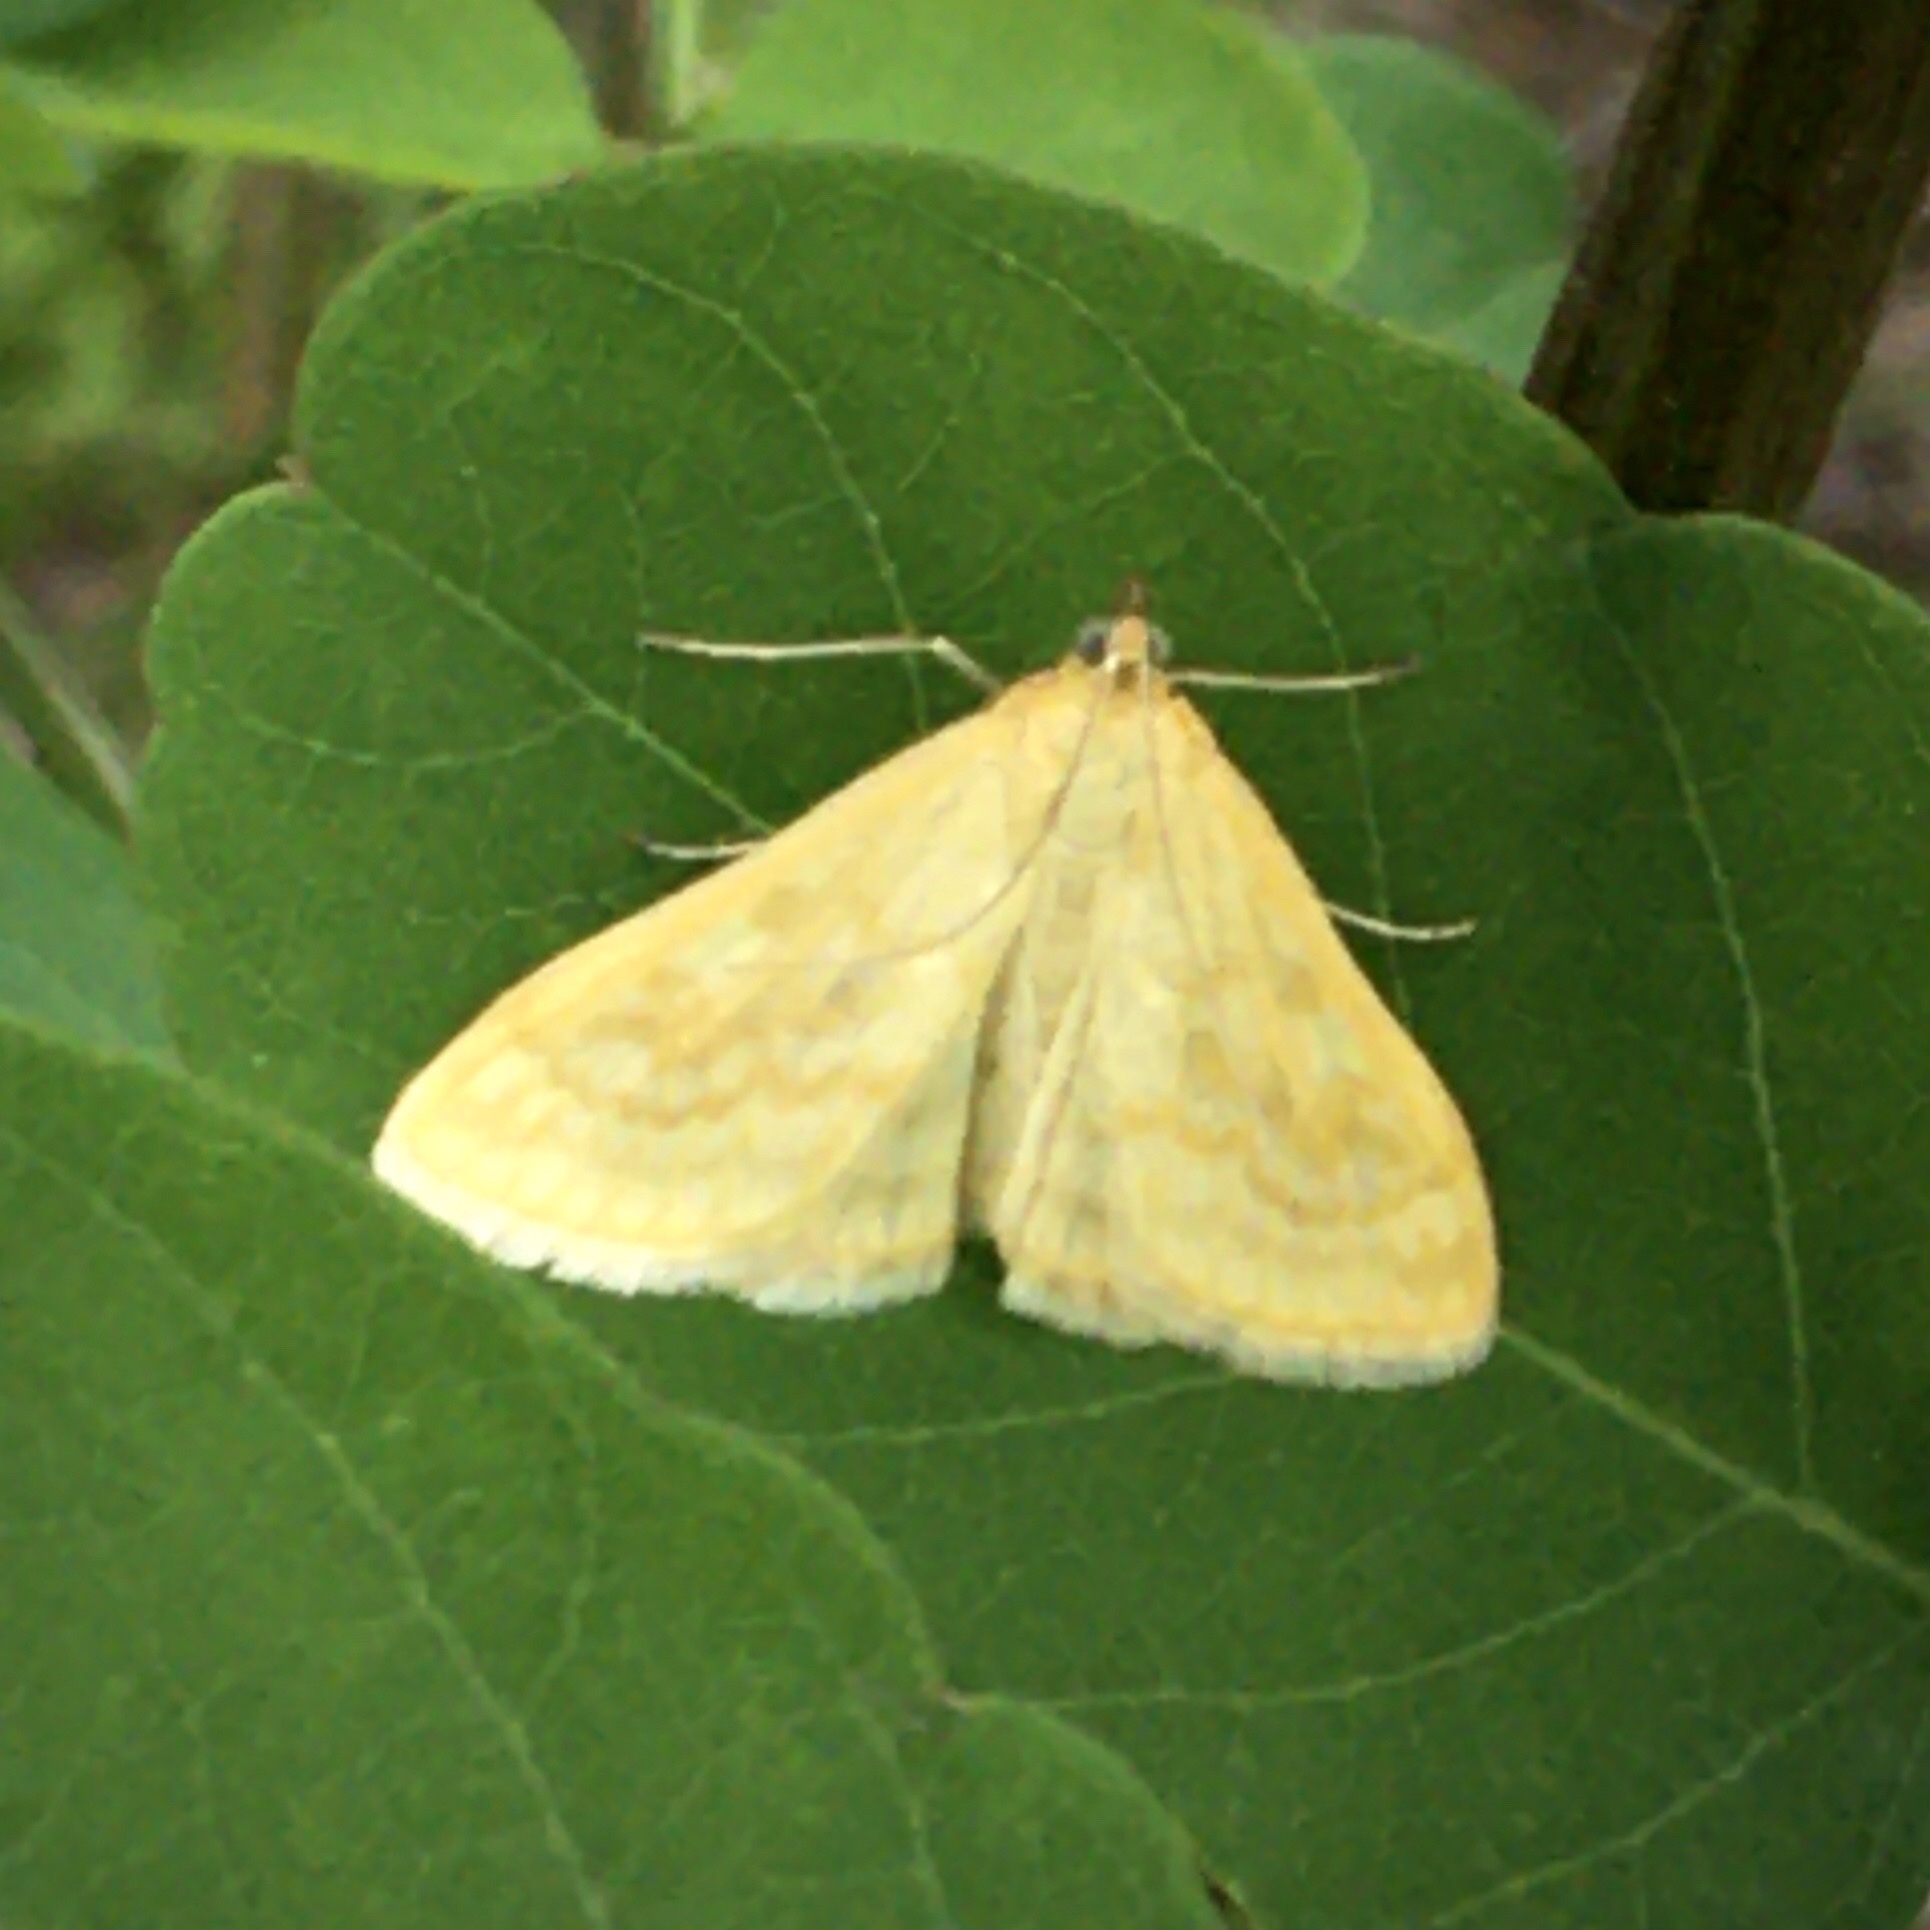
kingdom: Animalia
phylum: Arthropoda
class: Insecta
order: Lepidoptera
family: Crambidae
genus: Sitochroa
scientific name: Sitochroa verticalis
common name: Lesser pearl
